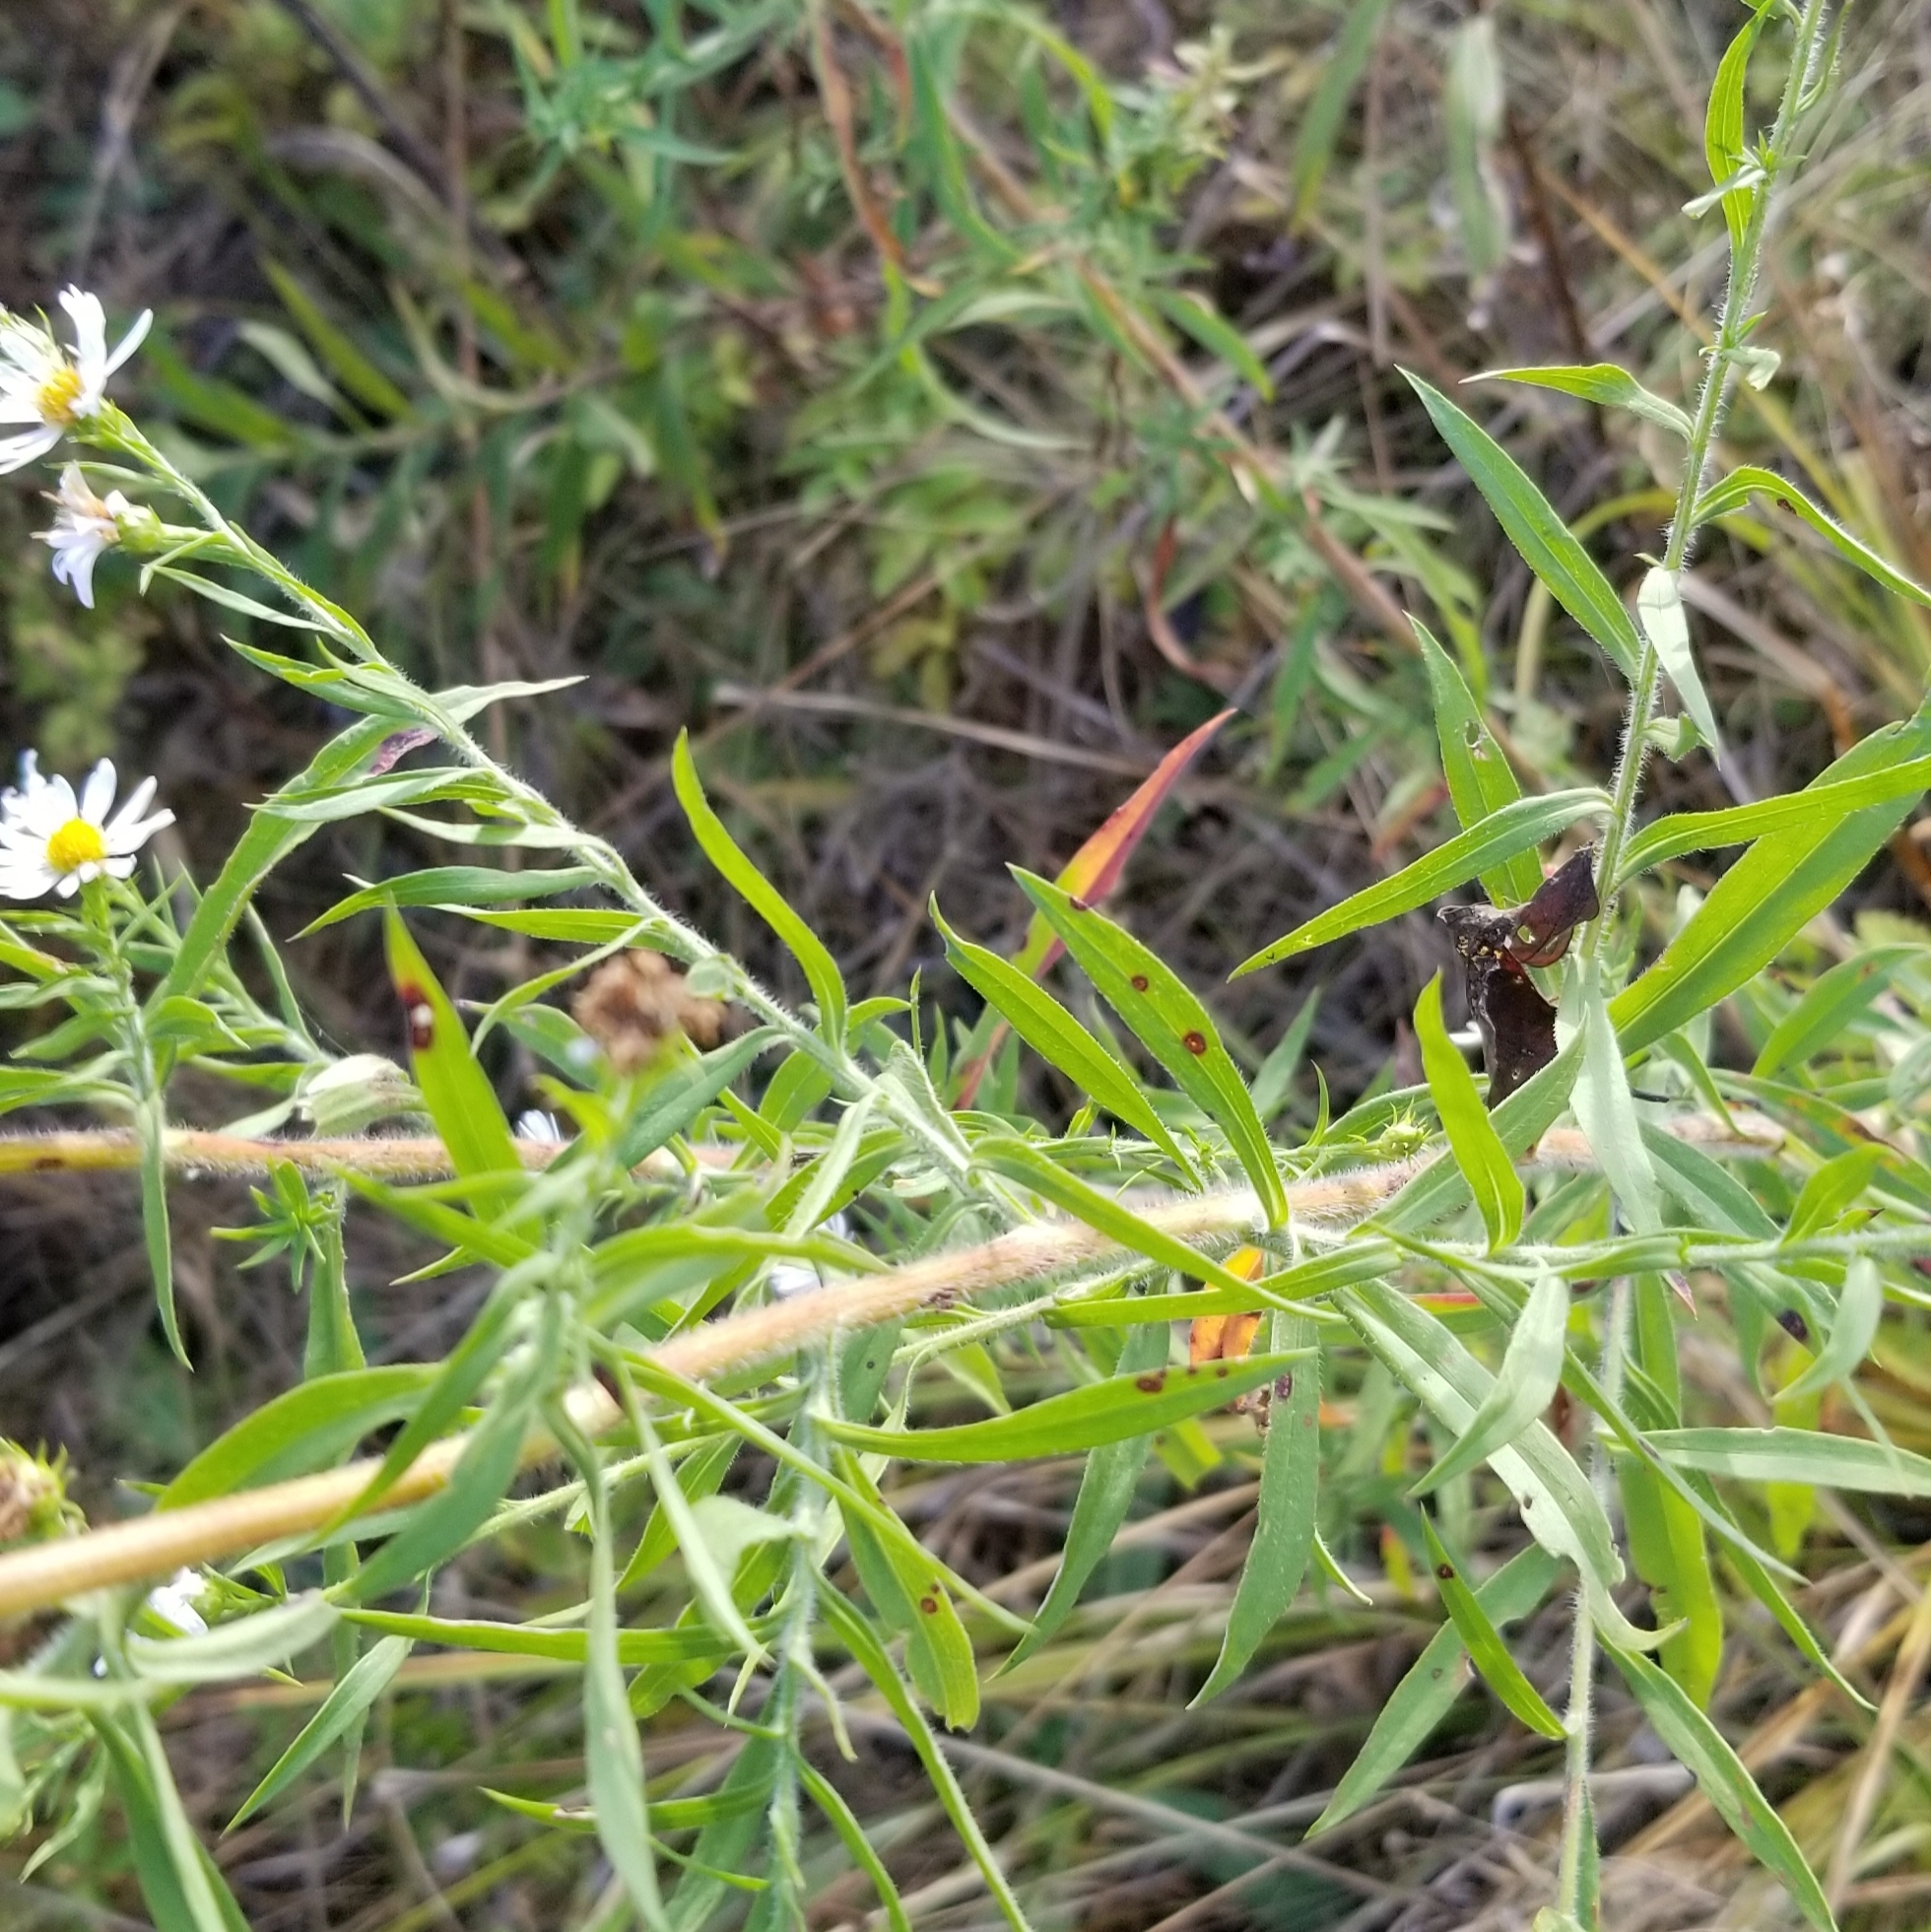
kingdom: Plantae
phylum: Tracheophyta
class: Magnoliopsida
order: Asterales
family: Asteraceae
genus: Symphyotrichum
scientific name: Symphyotrichum pilosum
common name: Awl aster
